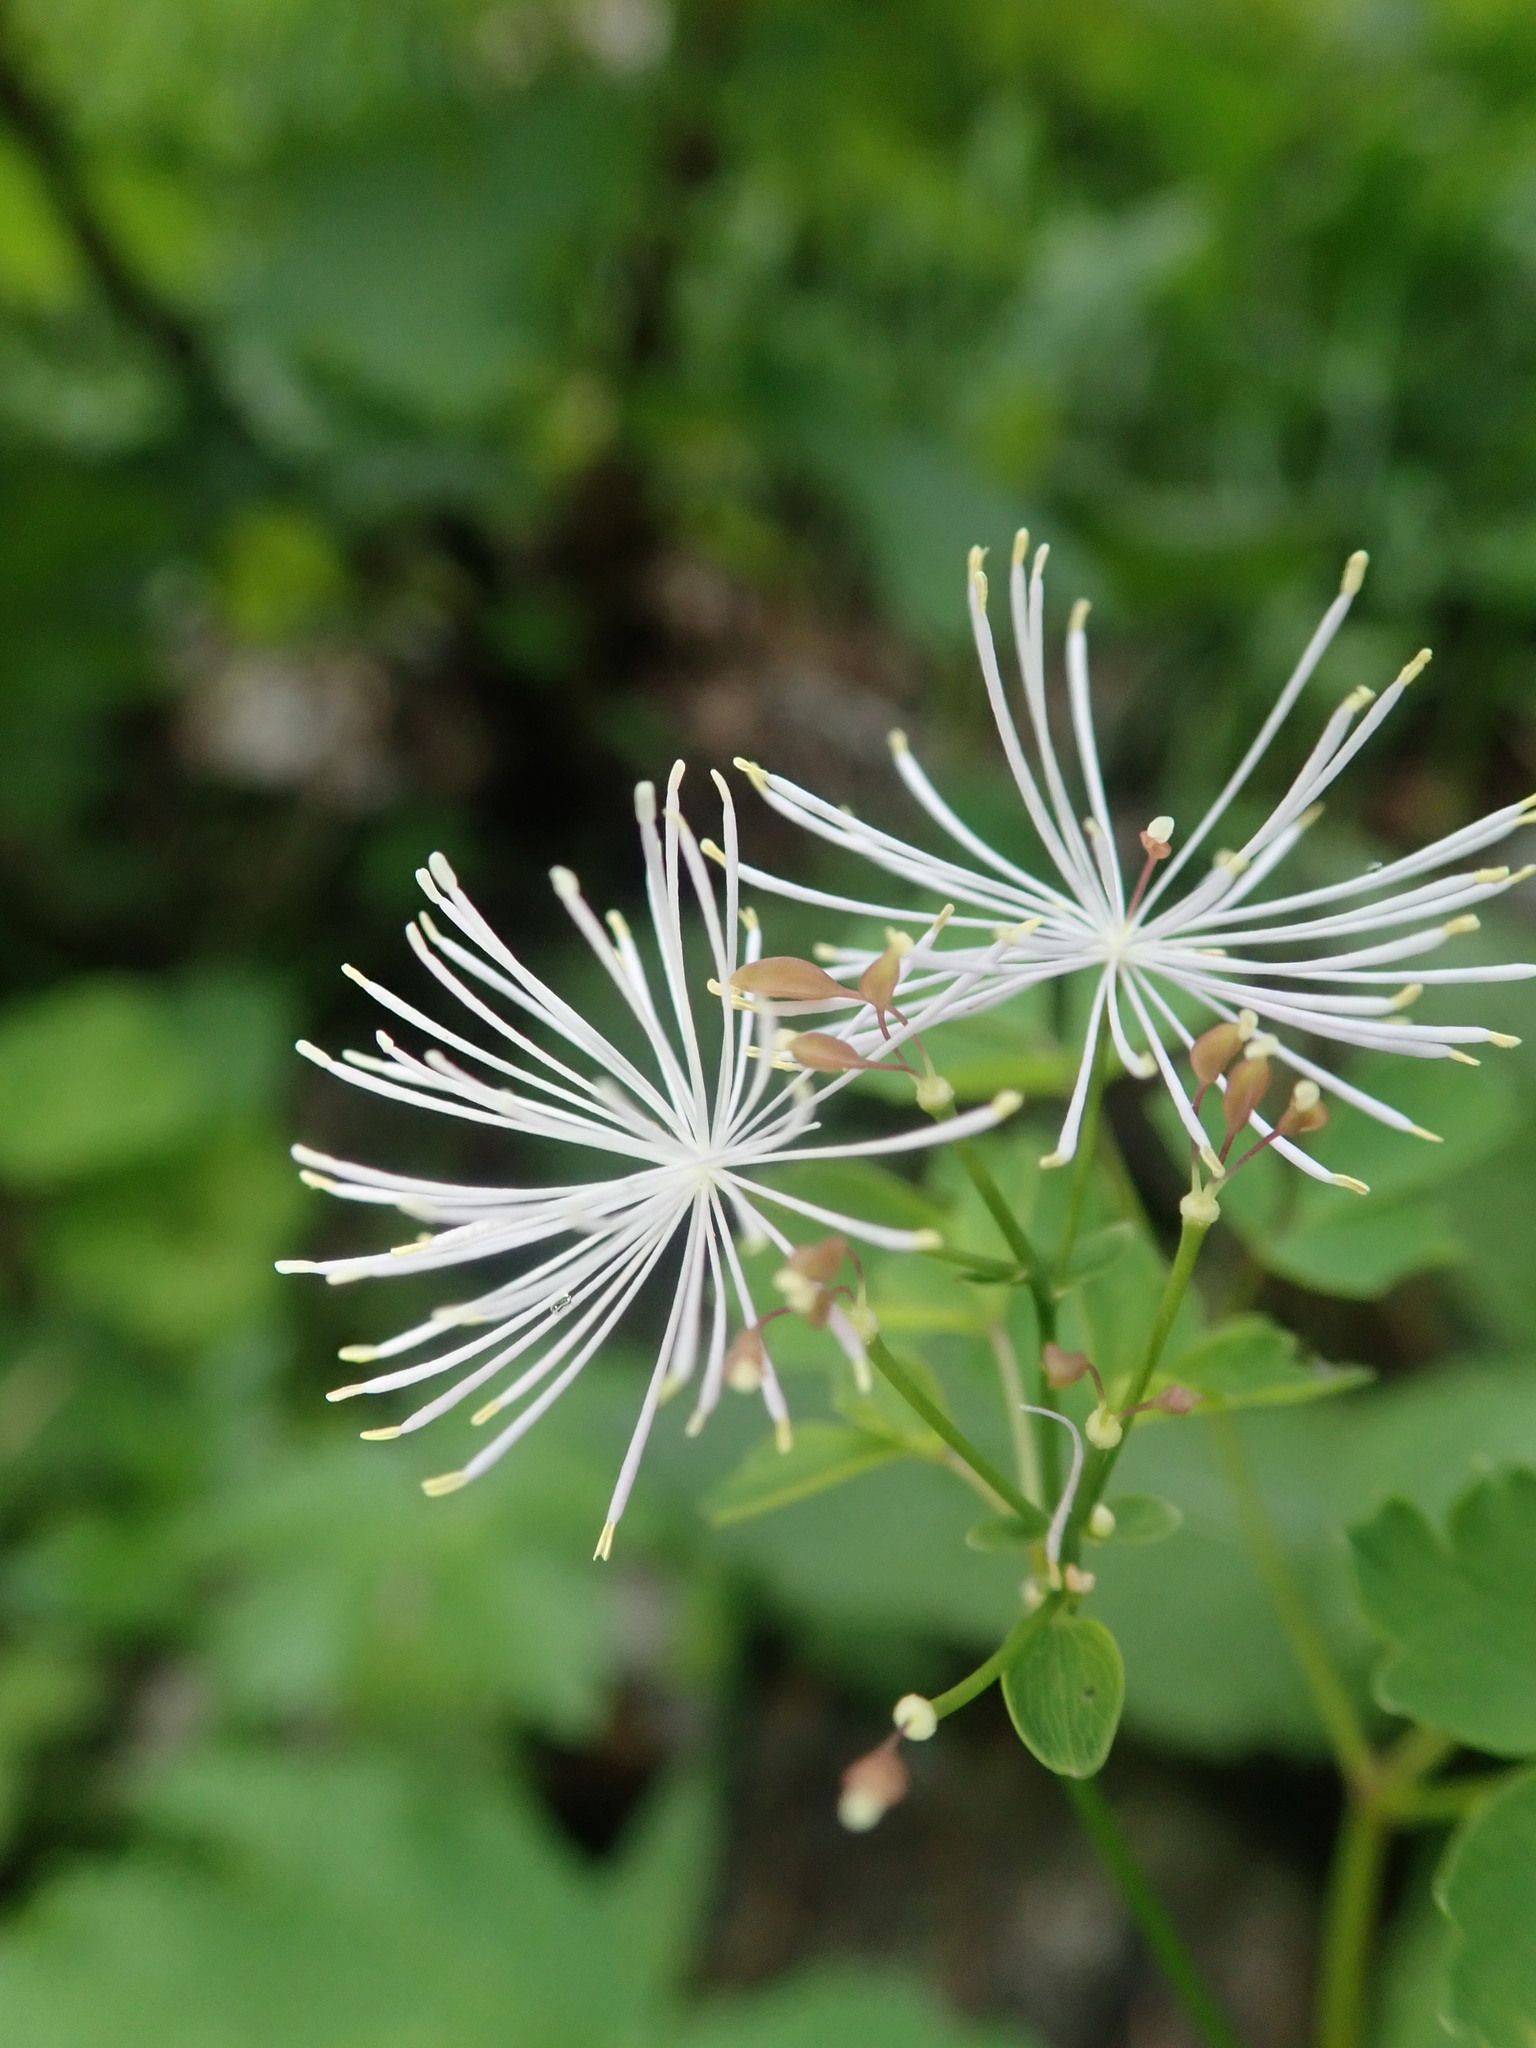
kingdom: Plantae
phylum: Tracheophyta
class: Magnoliopsida
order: Ranunculales
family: Ranunculaceae
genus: Thalictrum
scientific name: Thalictrum aquilegiifolium
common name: French meadow-rue
